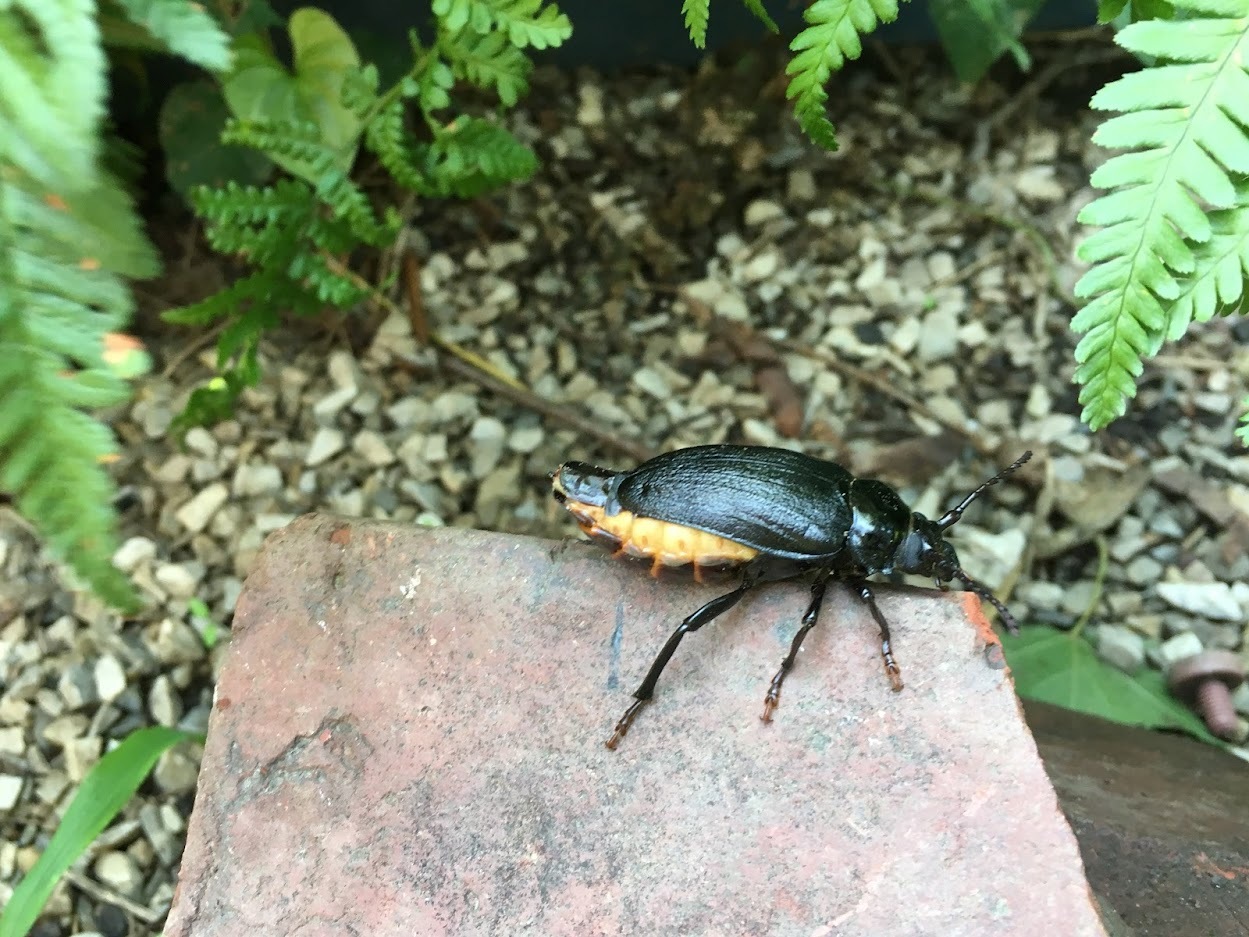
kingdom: Animalia
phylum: Arthropoda
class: Insecta
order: Coleoptera
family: Cerambycidae
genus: Prionus
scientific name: Prionus laticollis
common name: Broad necked prionus
